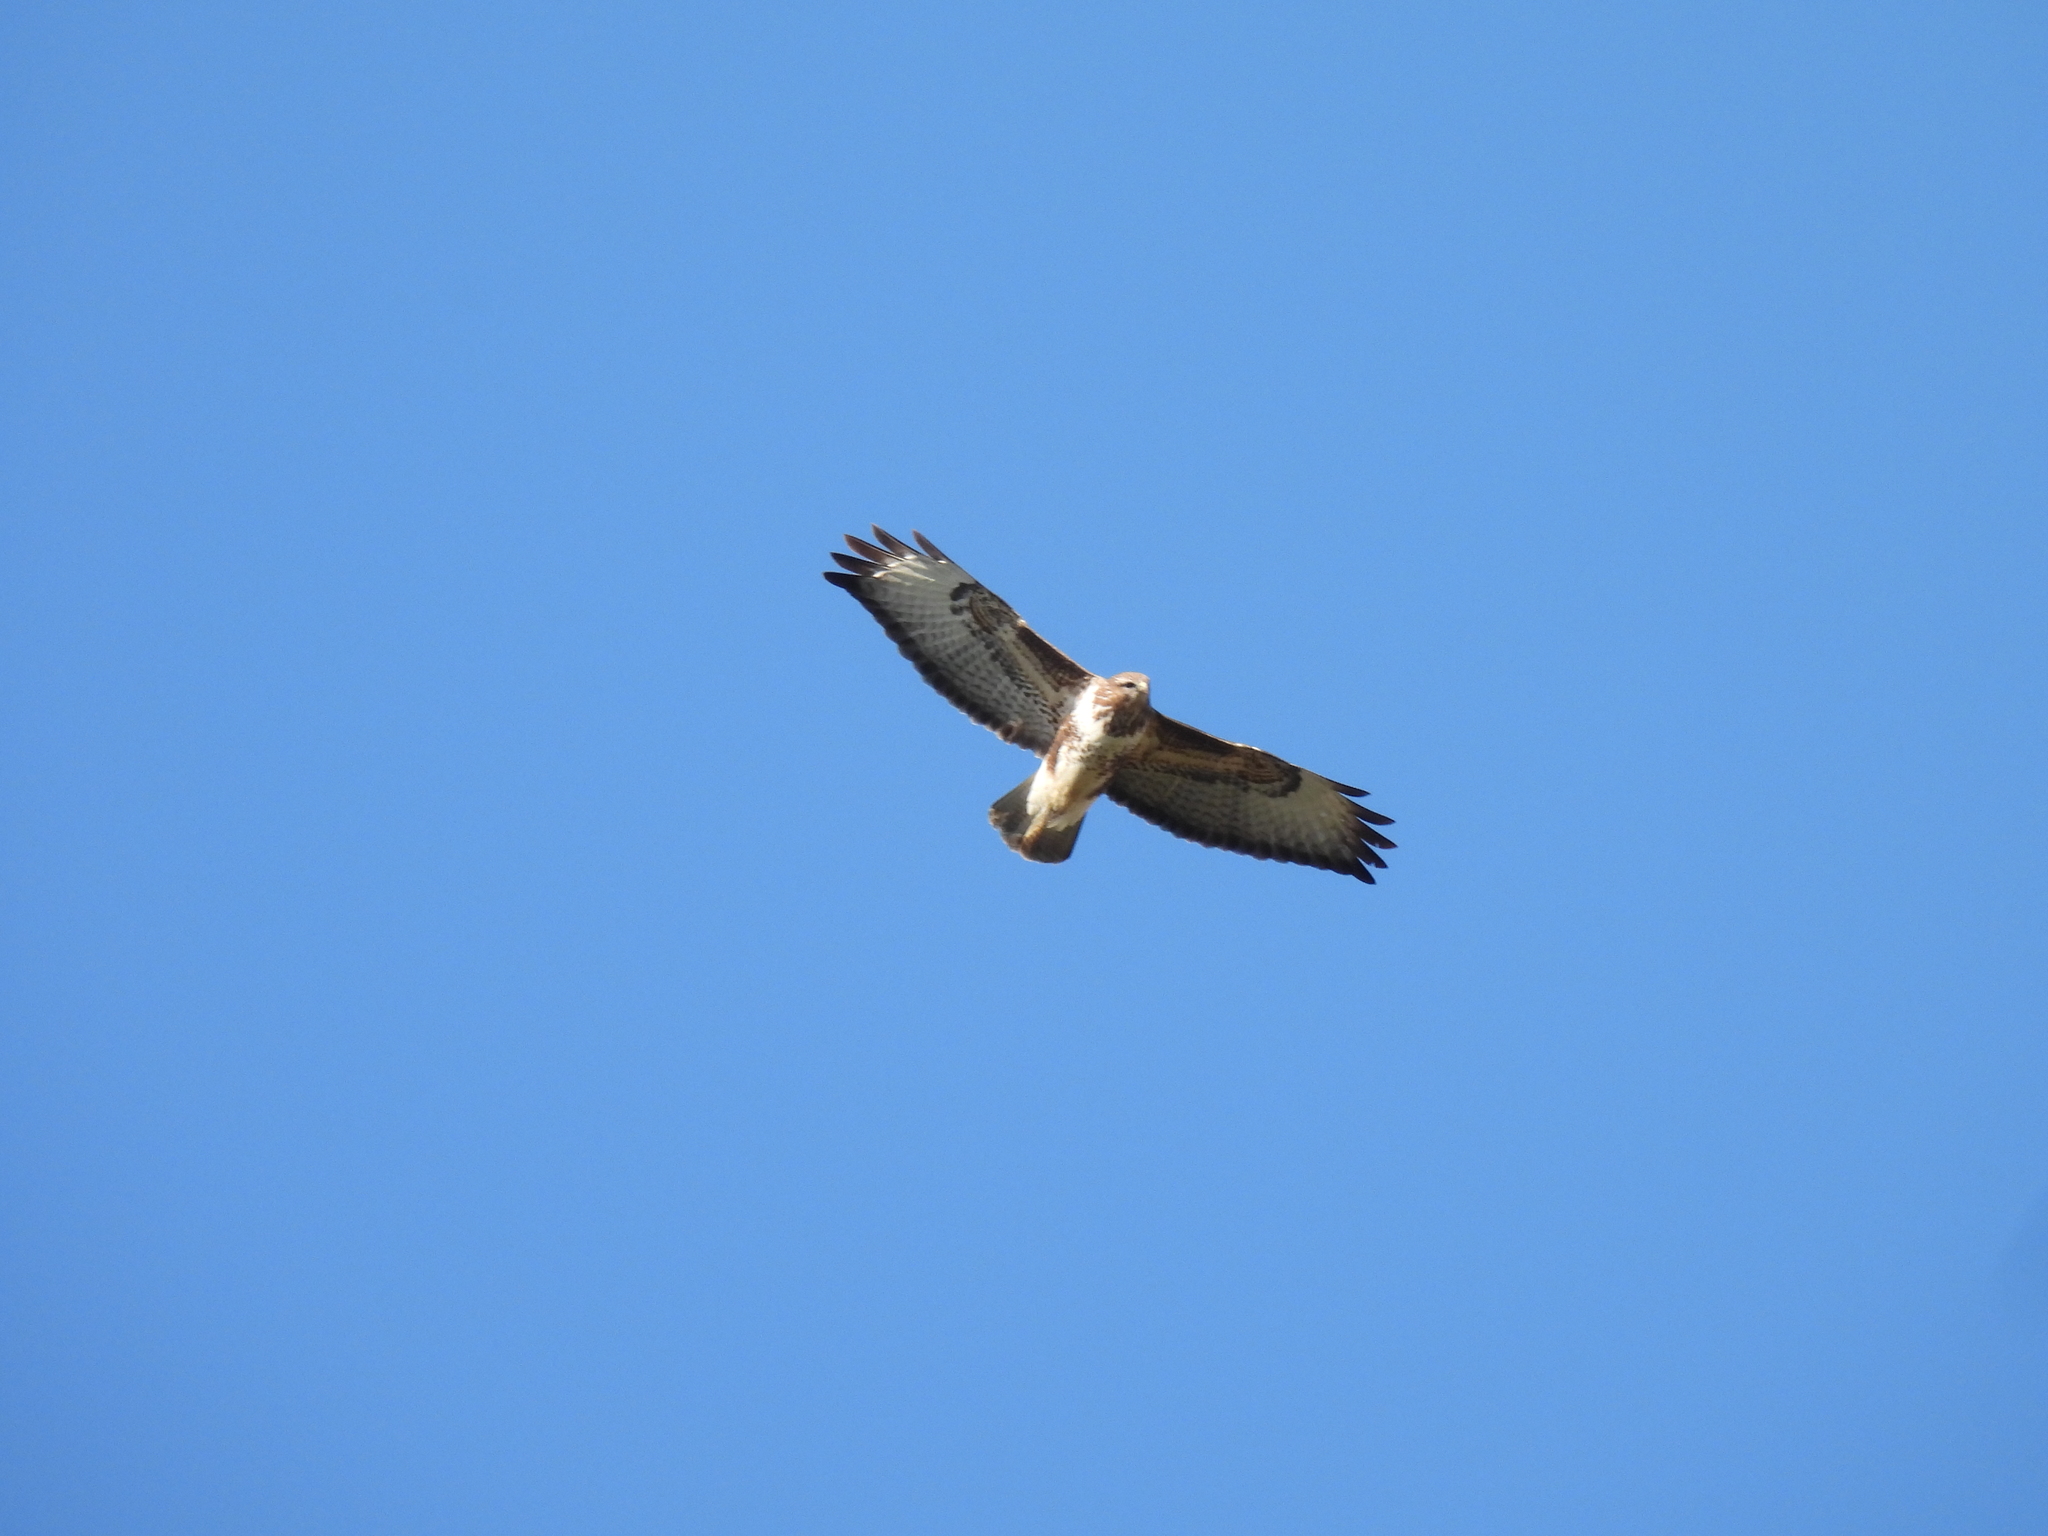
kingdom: Animalia
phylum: Chordata
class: Aves
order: Accipitriformes
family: Accipitridae
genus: Buteo
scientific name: Buteo buteo
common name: Common buzzard
